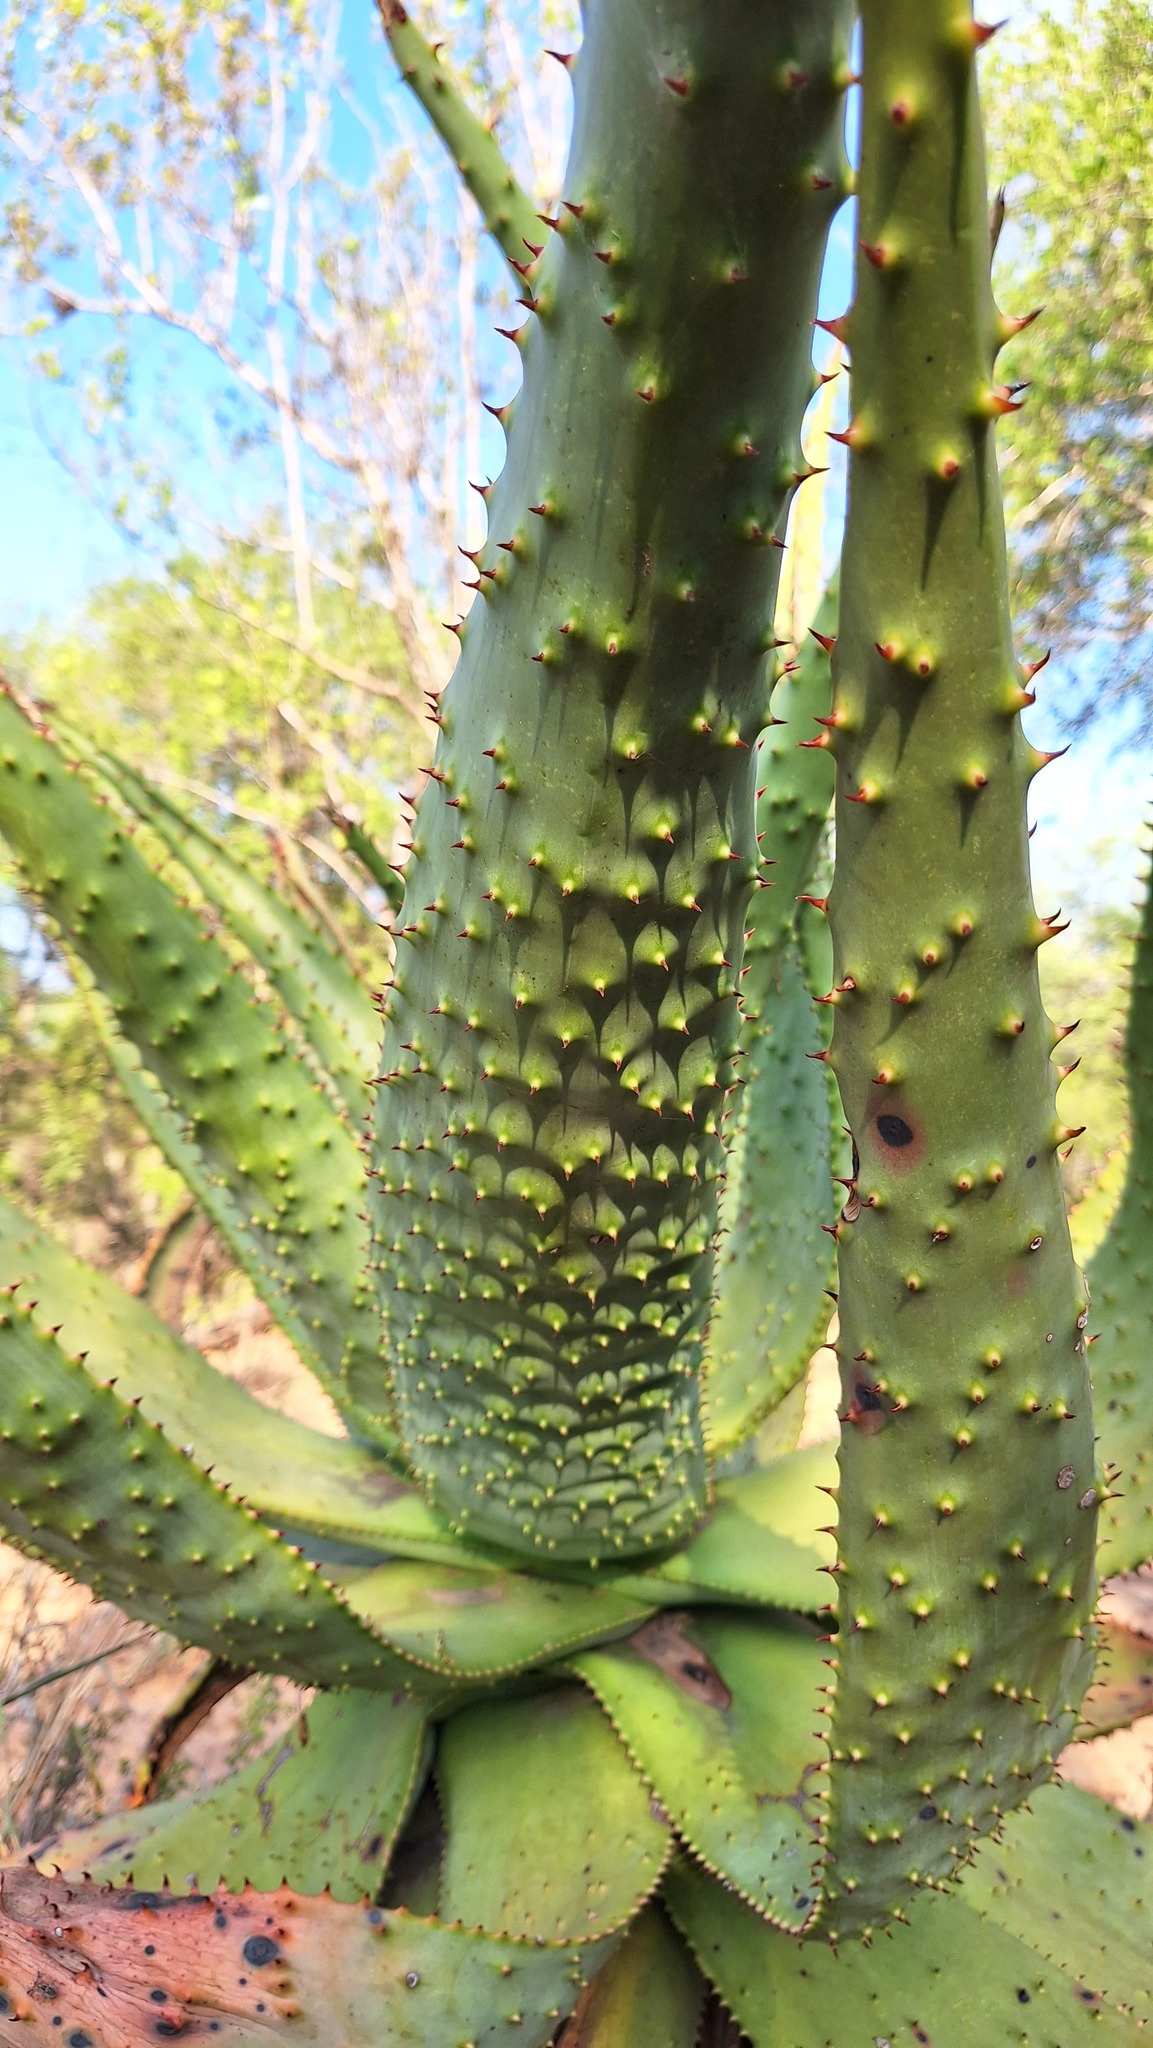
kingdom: Plantae
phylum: Tracheophyta
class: Liliopsida
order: Asparagales
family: Asphodelaceae
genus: Aloe
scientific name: Aloe marlothii
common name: Flat-flowered aloe
